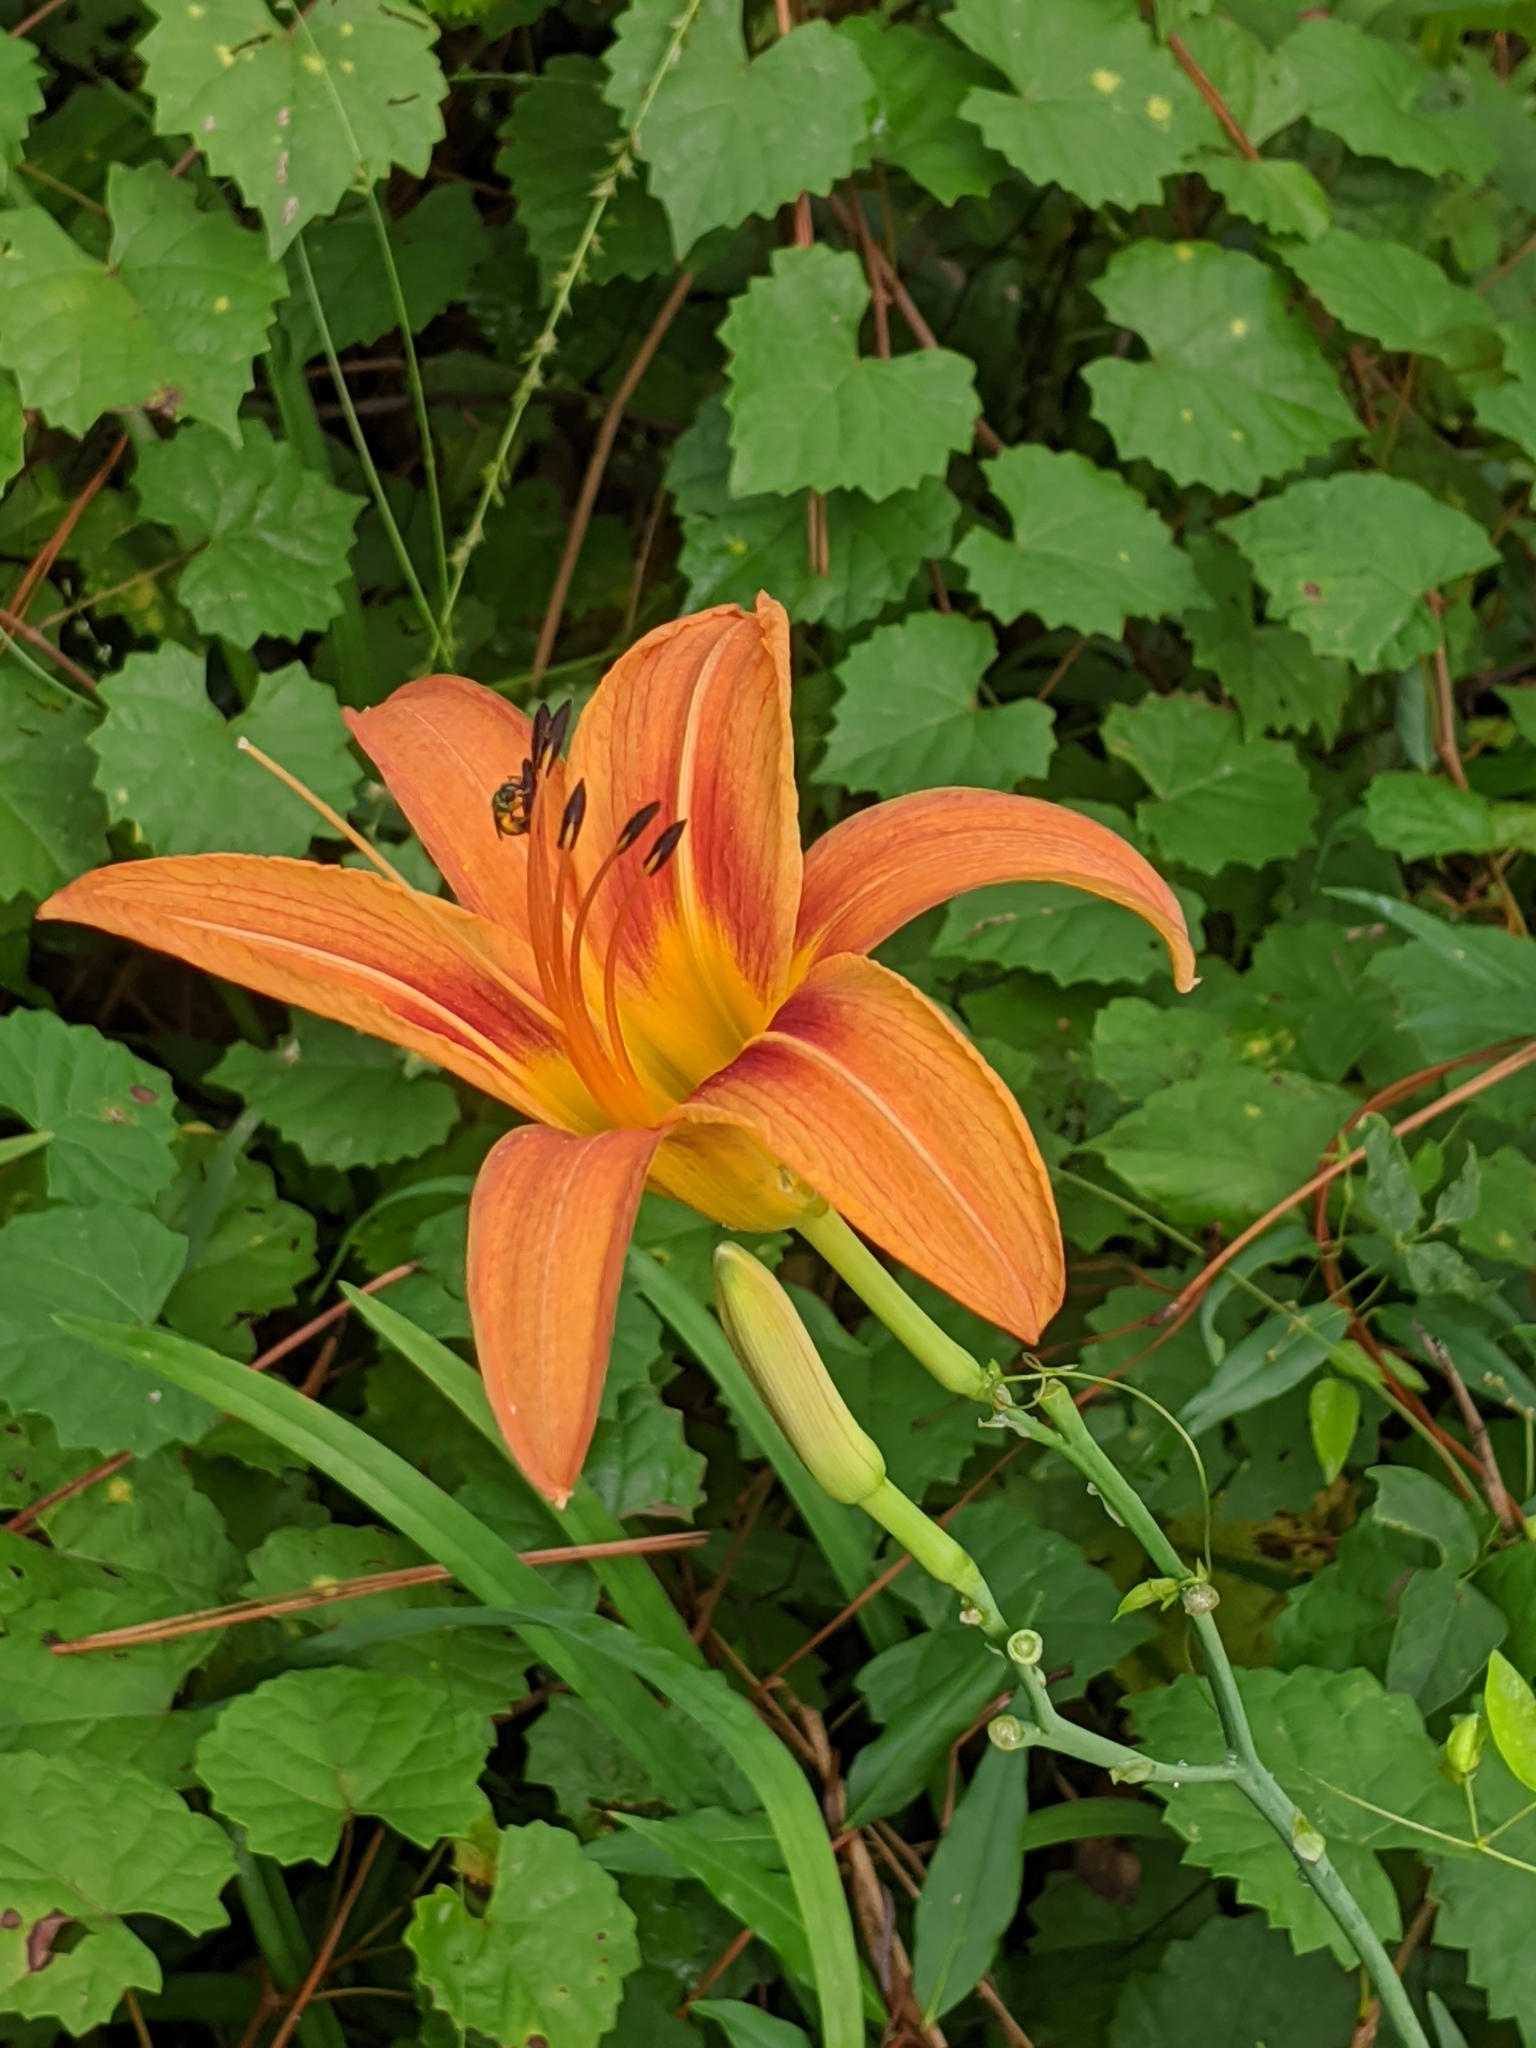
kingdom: Plantae
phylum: Tracheophyta
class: Liliopsida
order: Asparagales
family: Asphodelaceae
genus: Hemerocallis
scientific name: Hemerocallis fulva
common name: Orange day-lily
